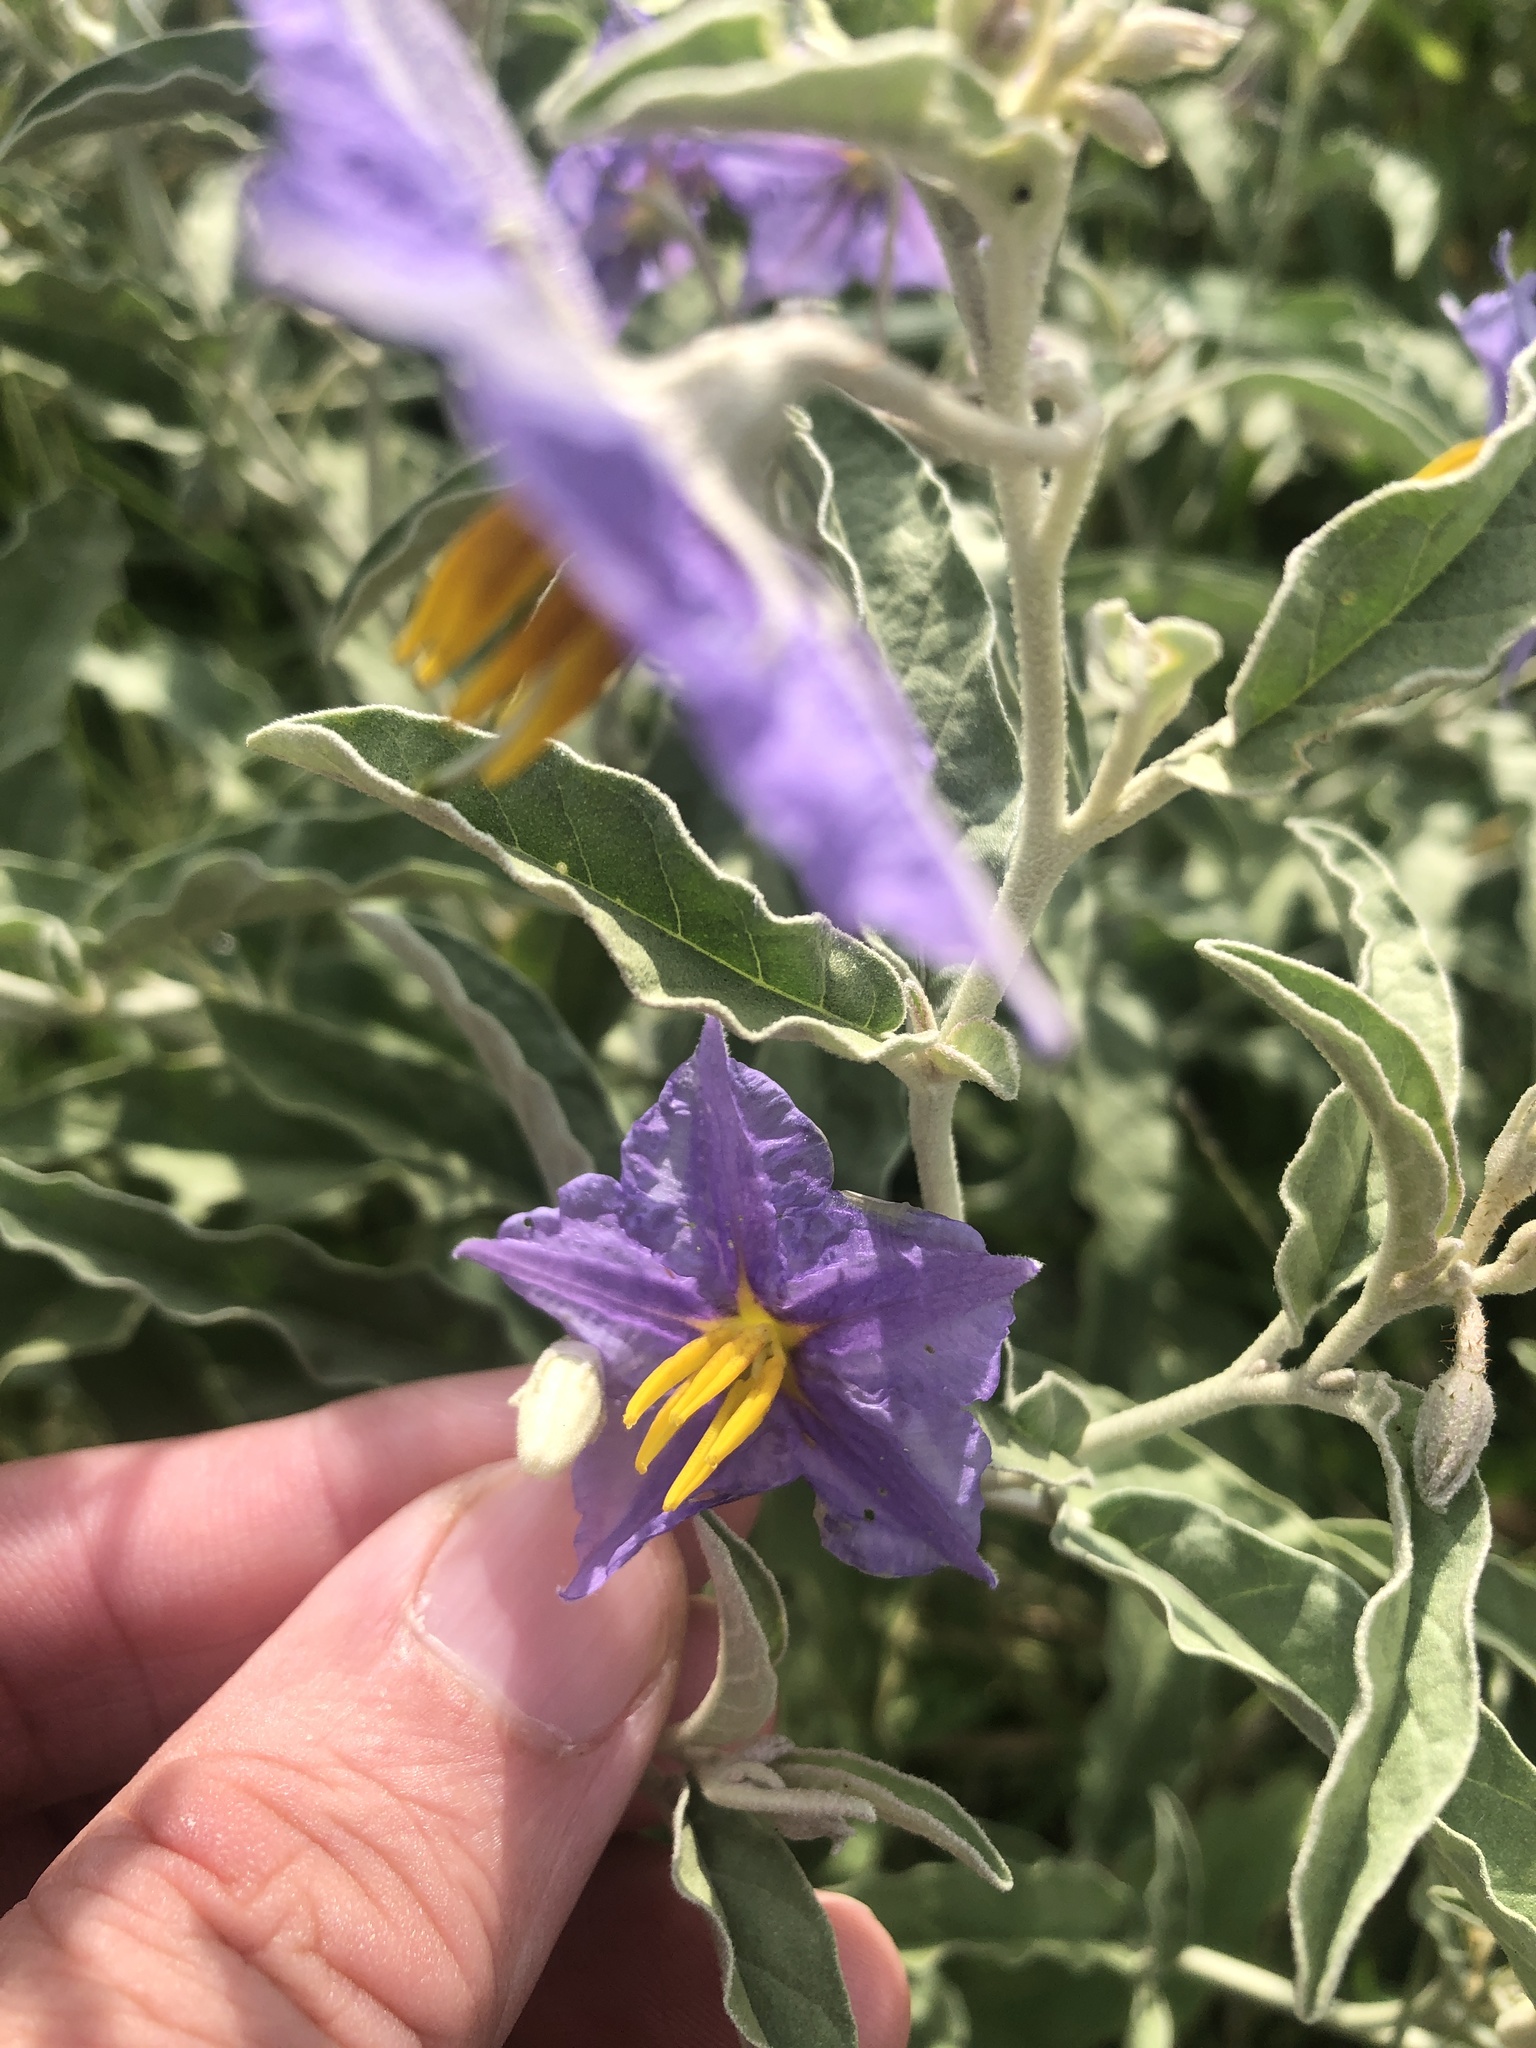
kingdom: Plantae
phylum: Tracheophyta
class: Magnoliopsida
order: Solanales
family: Solanaceae
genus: Solanum
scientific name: Solanum elaeagnifolium
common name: Silverleaf nightshade
